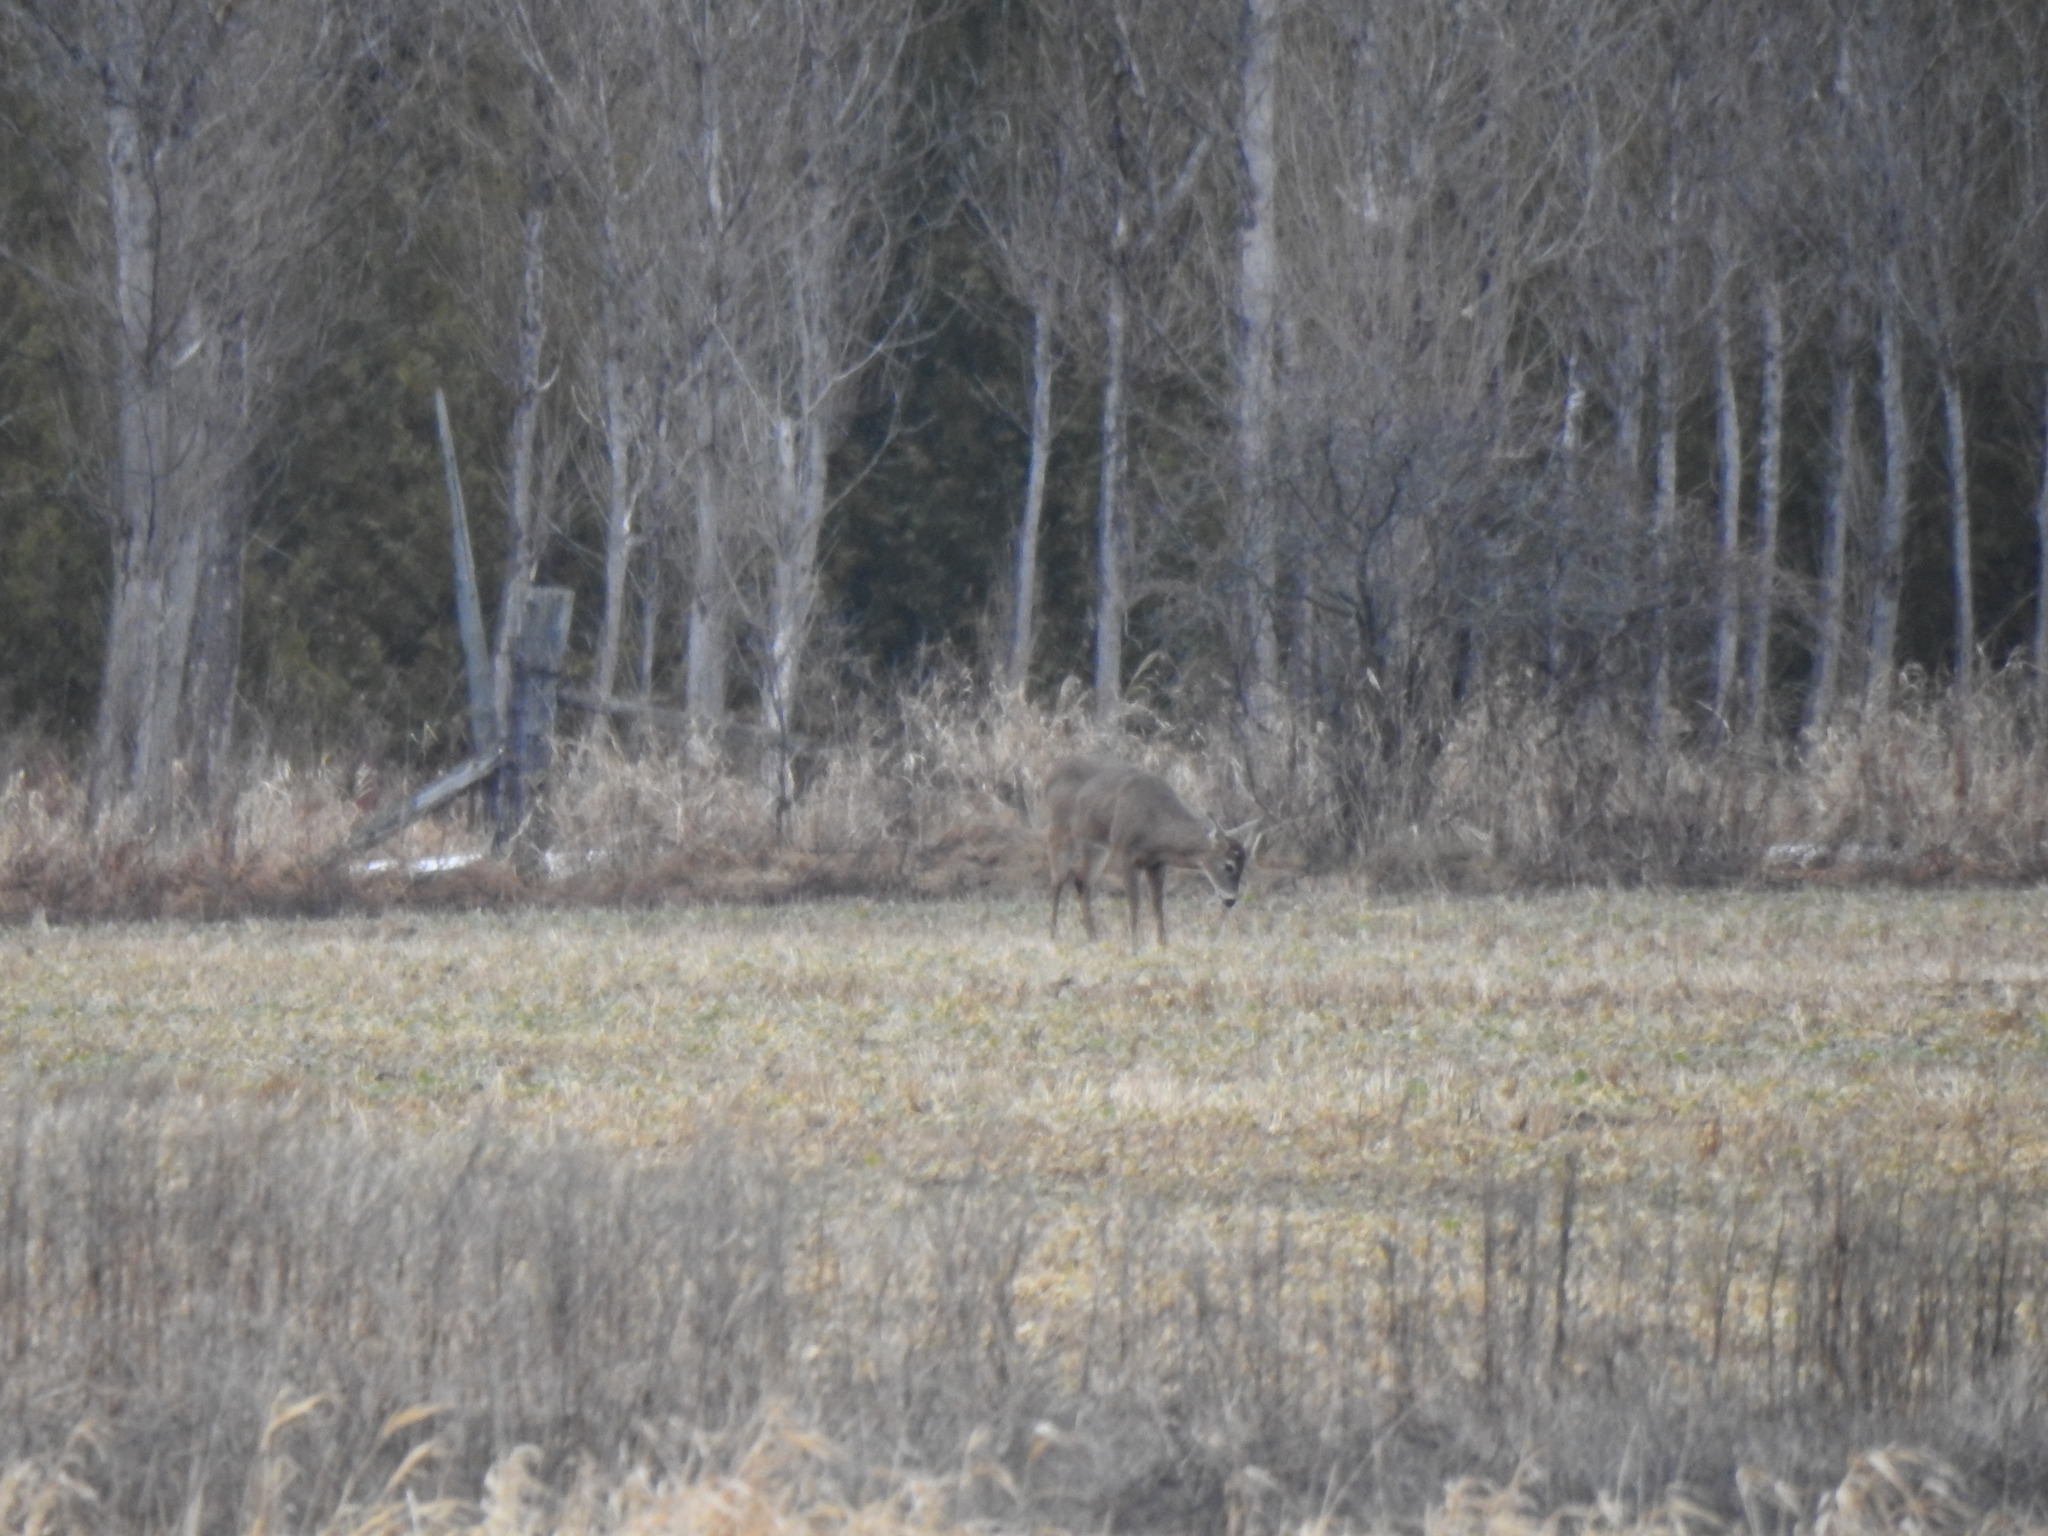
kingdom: Animalia
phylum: Chordata
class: Mammalia
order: Artiodactyla
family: Cervidae
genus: Odocoileus
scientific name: Odocoileus virginianus
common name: White-tailed deer
